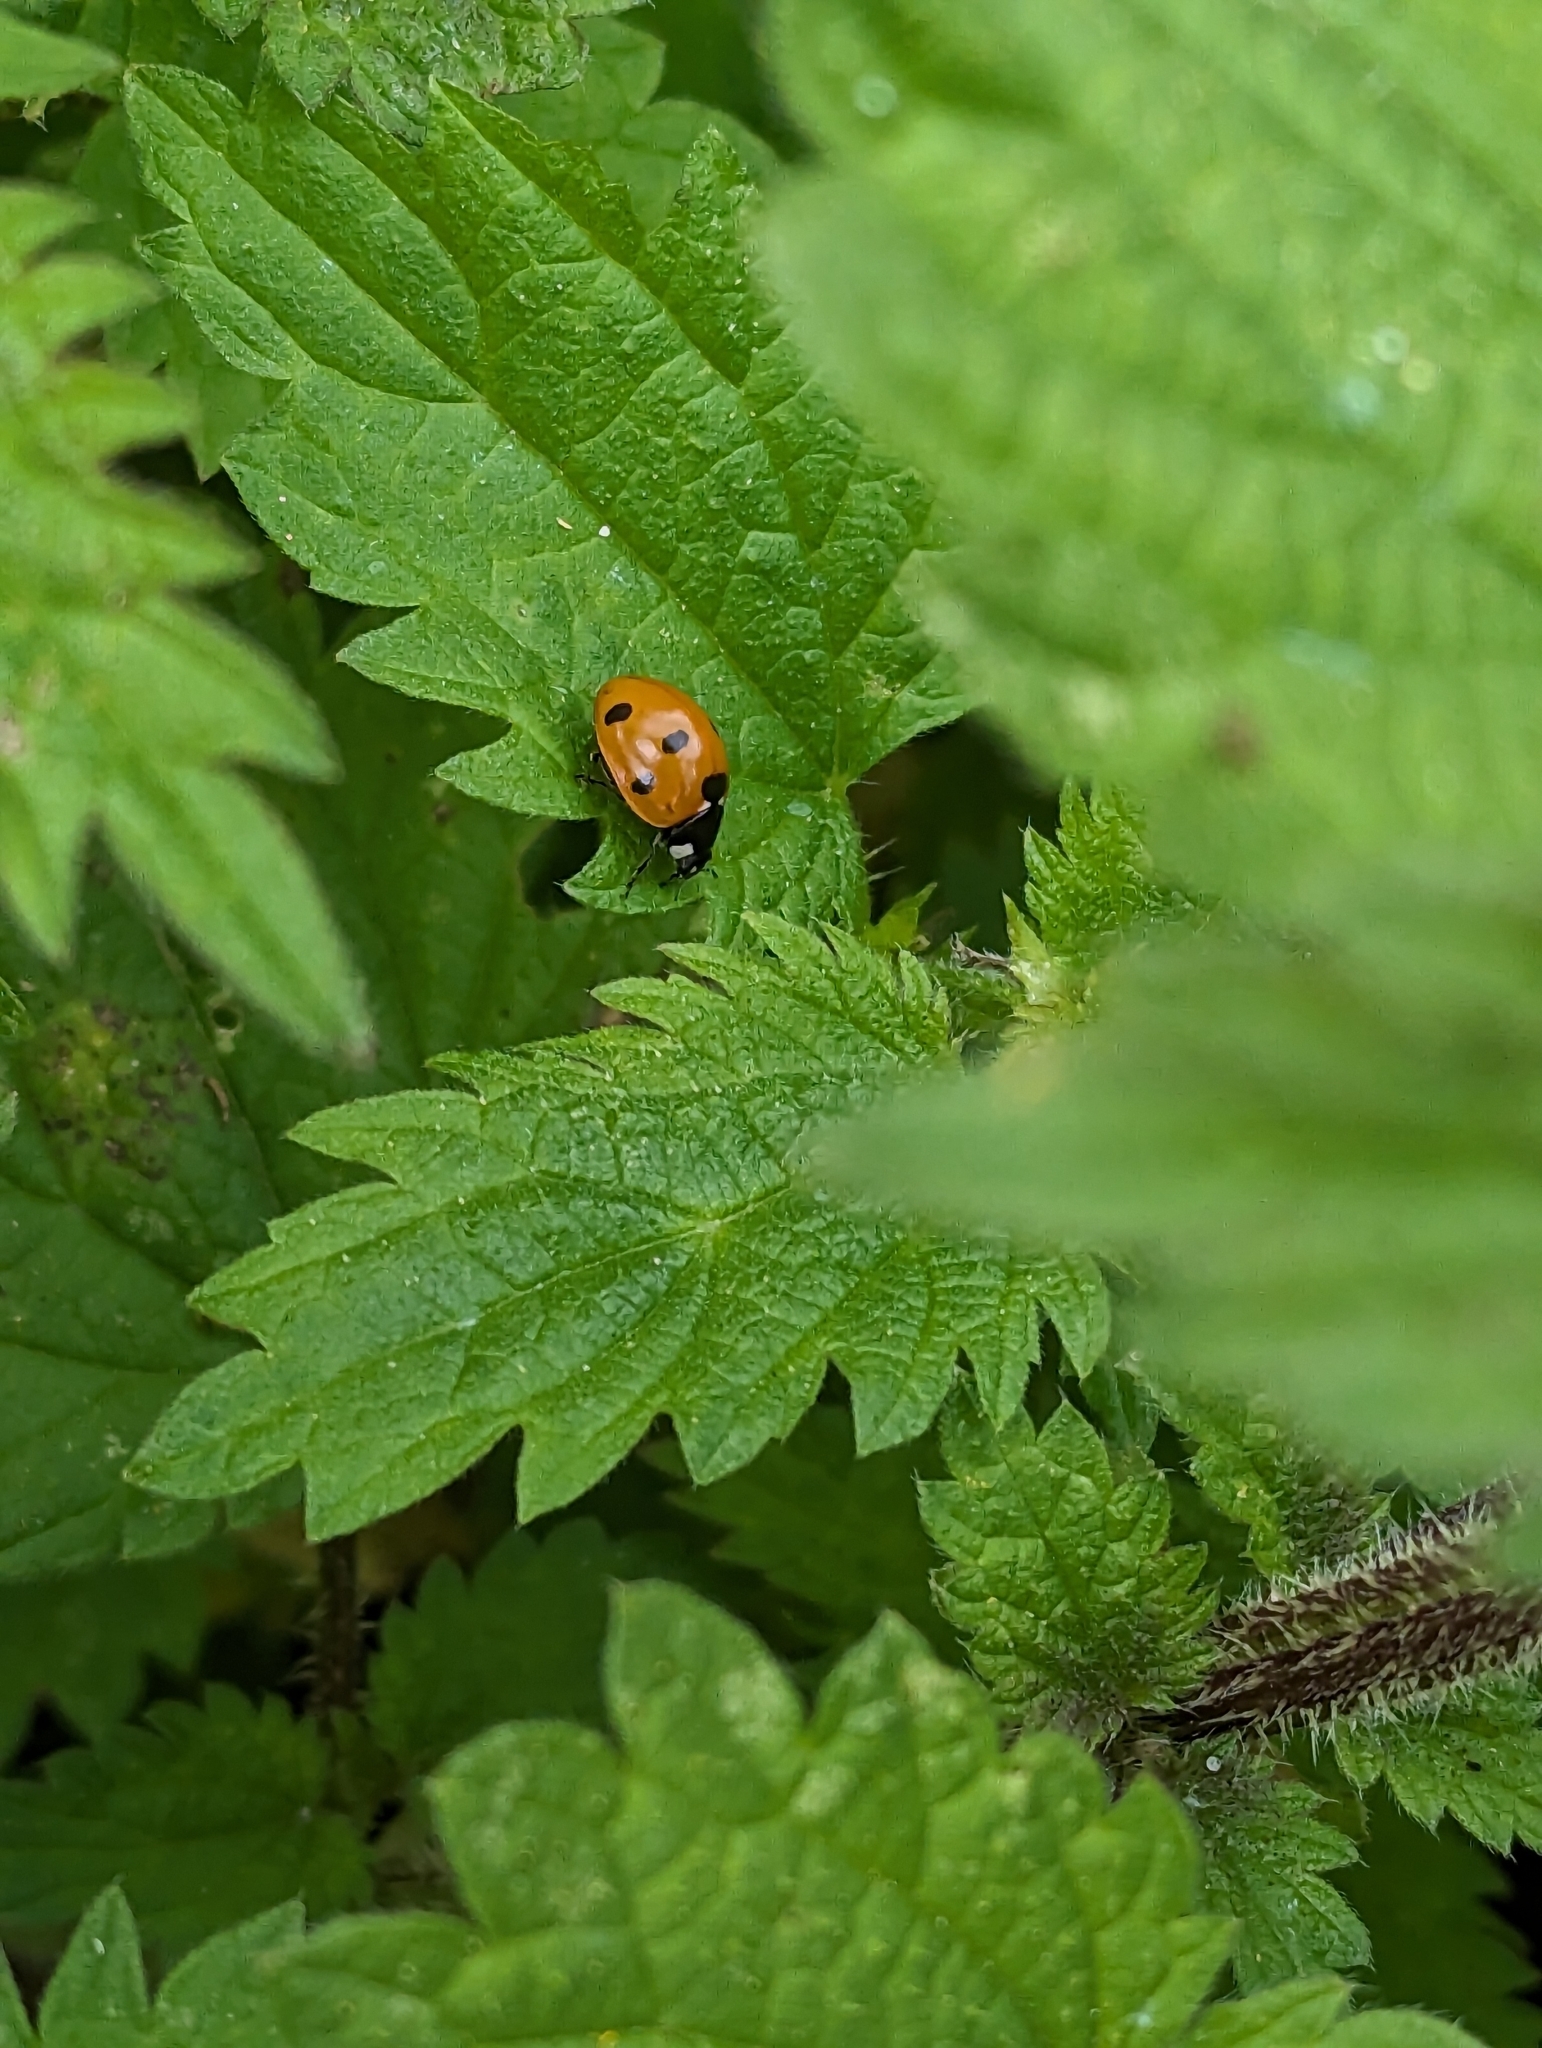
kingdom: Animalia
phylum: Arthropoda
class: Insecta
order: Coleoptera
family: Coccinellidae
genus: Coccinella
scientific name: Coccinella septempunctata
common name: Sevenspotted lady beetle
